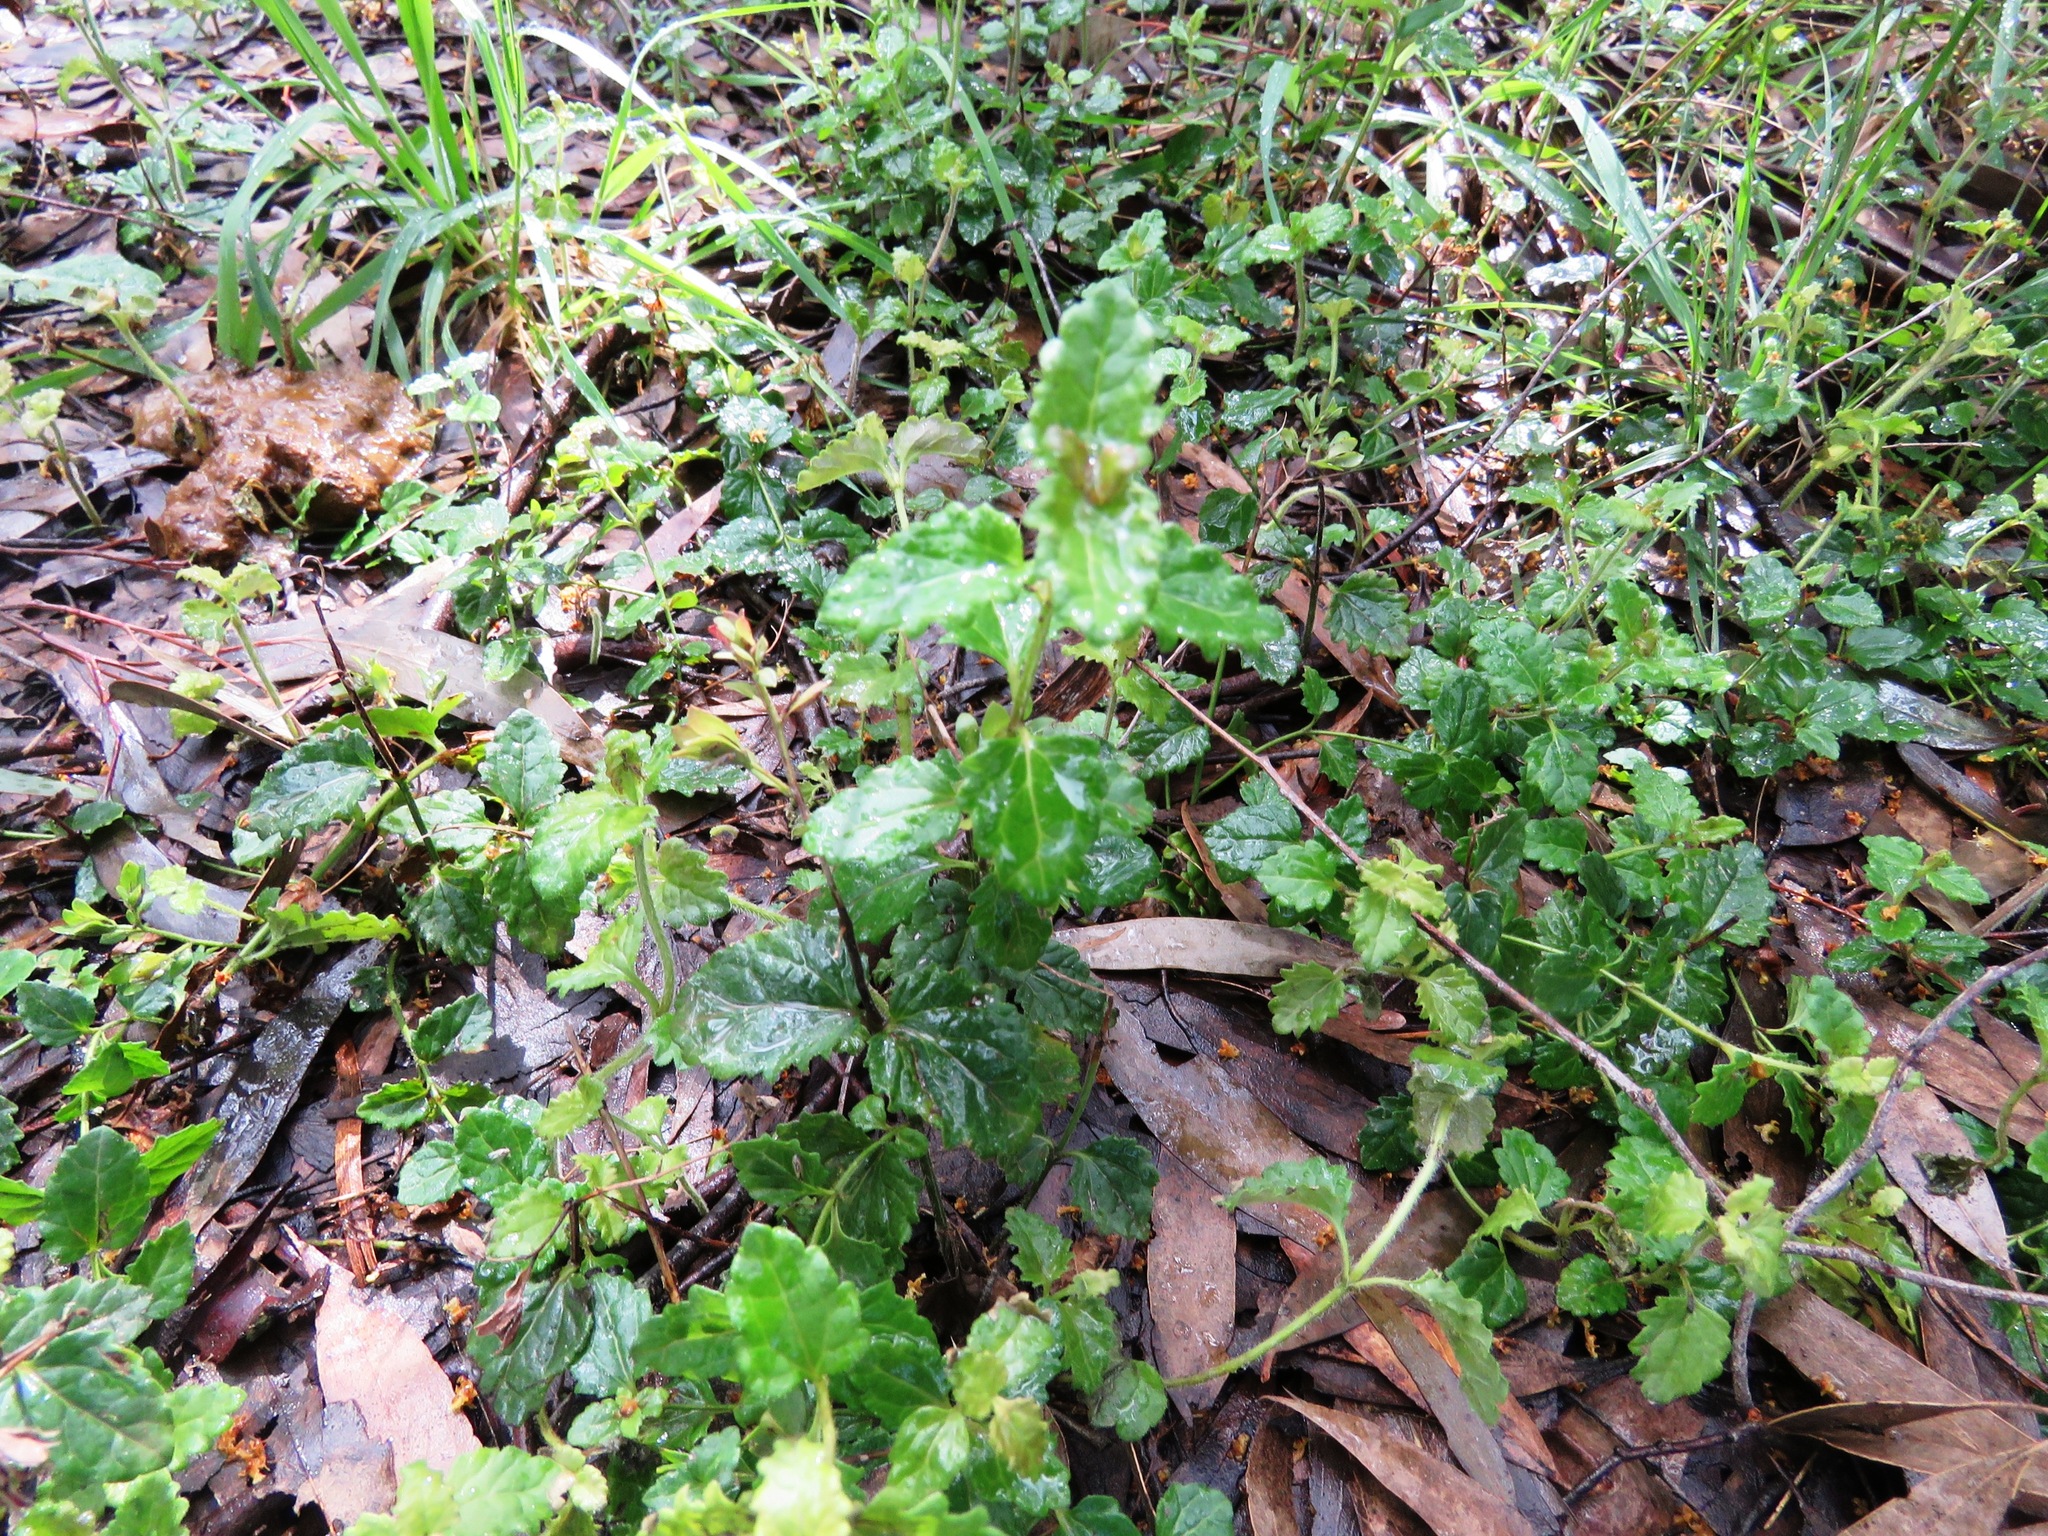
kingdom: Plantae
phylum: Tracheophyta
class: Magnoliopsida
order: Lamiales
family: Plantaginaceae
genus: Veronica
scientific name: Veronica calycina
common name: Cup speedwell
